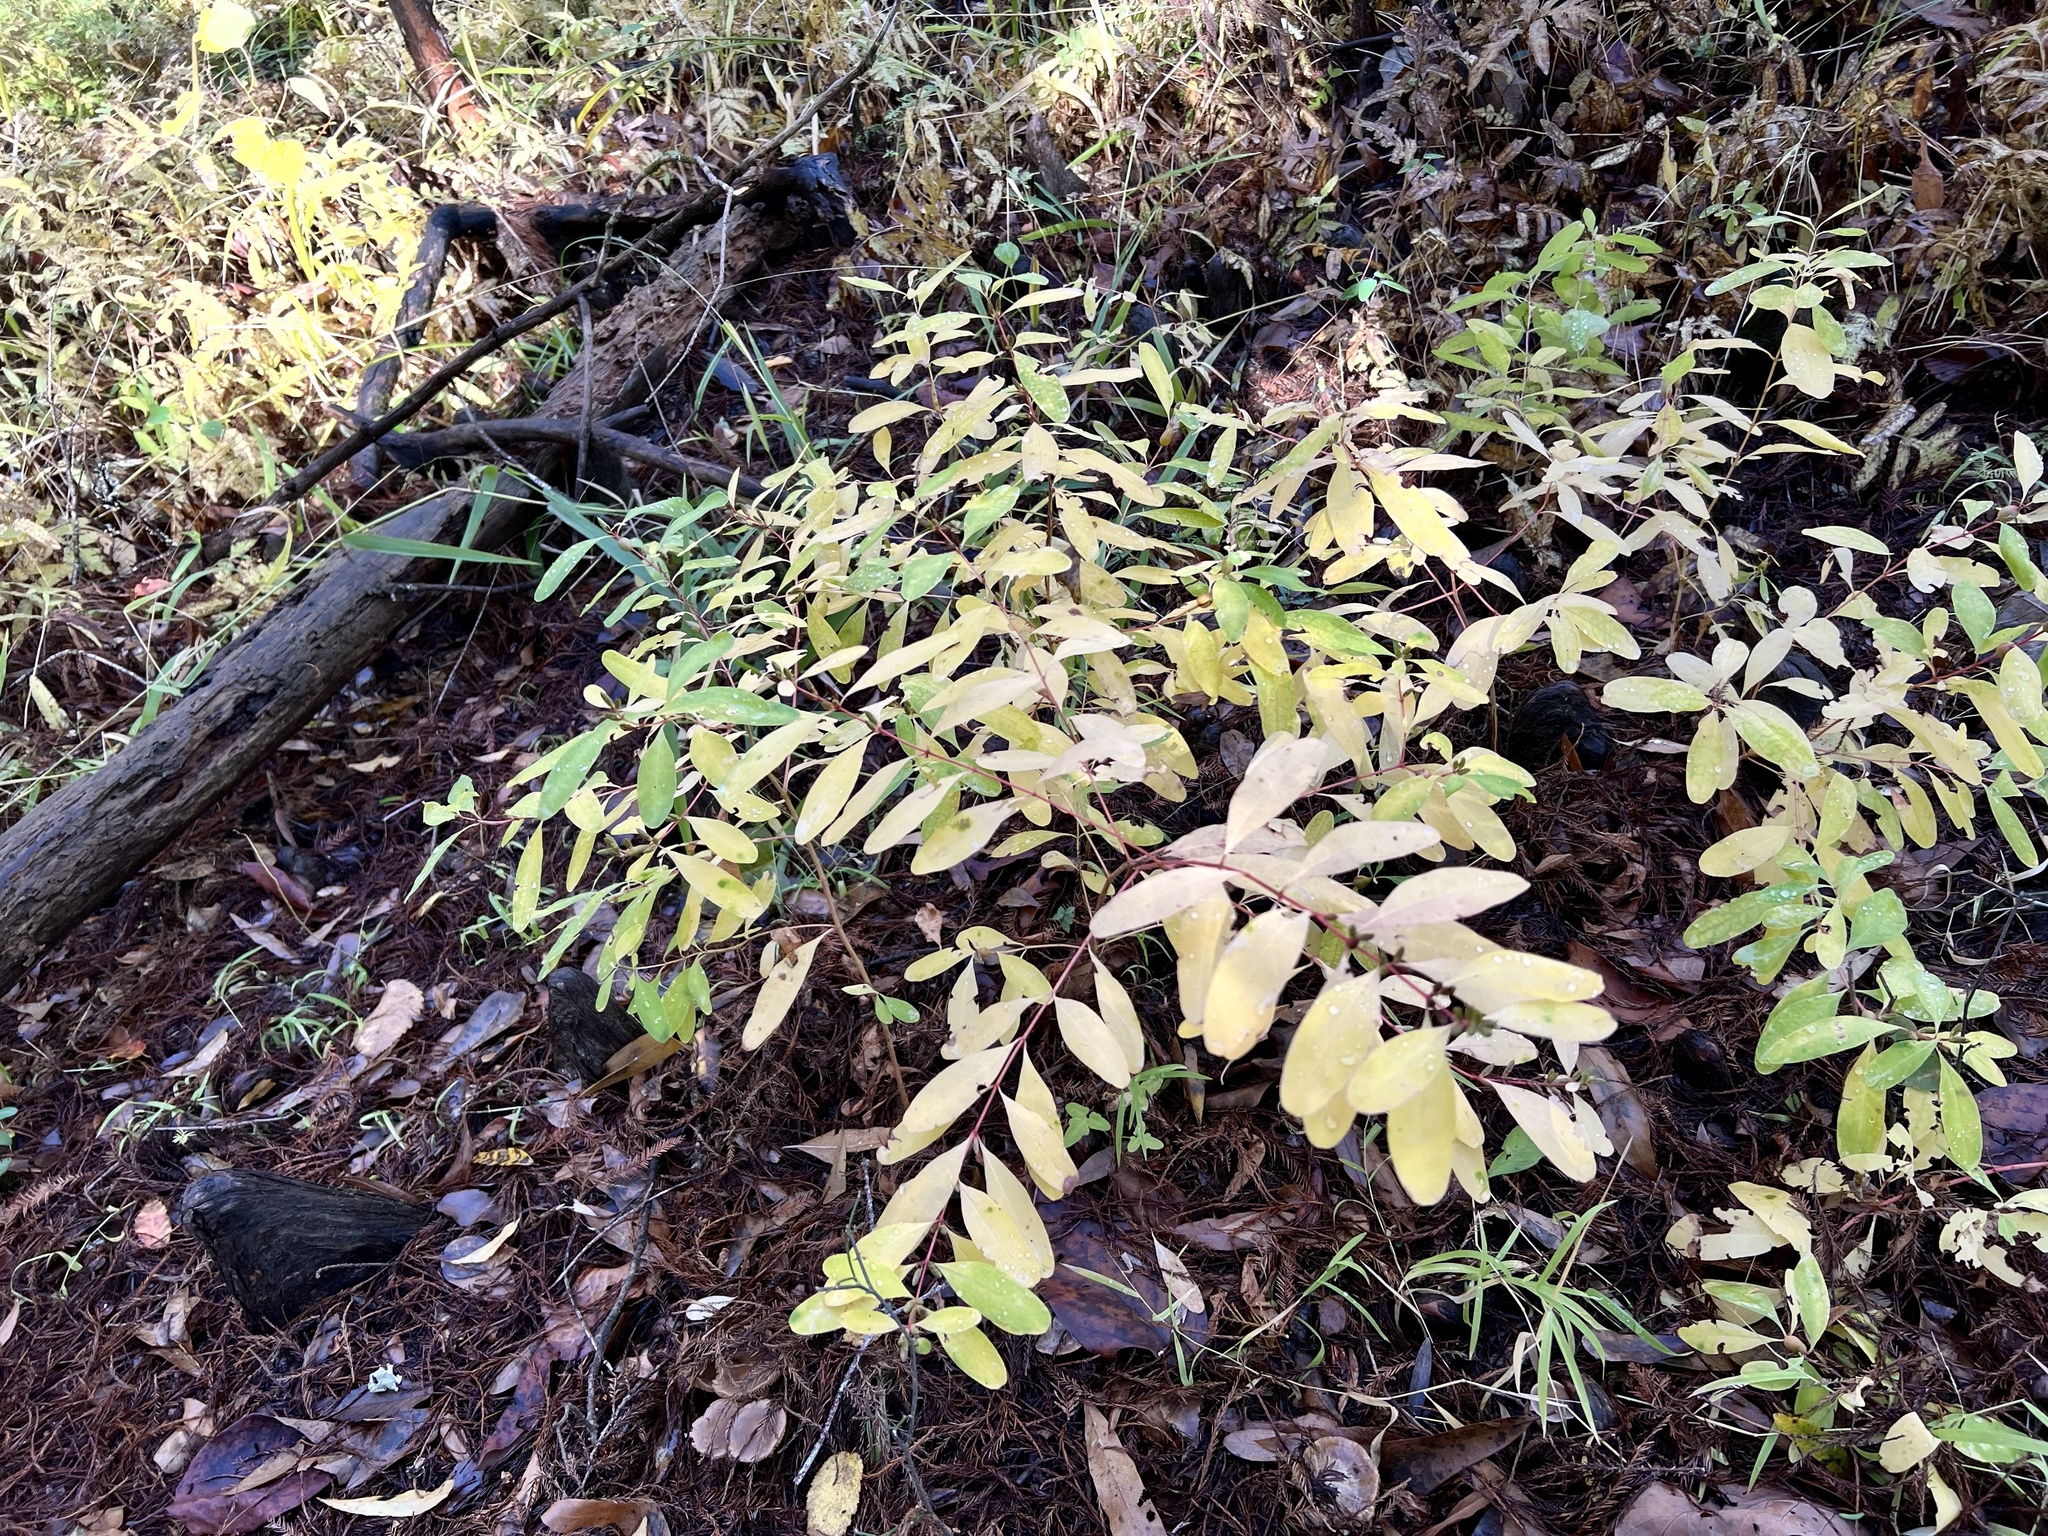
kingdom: Plantae
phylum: Tracheophyta
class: Magnoliopsida
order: Malpighiales
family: Hypericaceae
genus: Triadenum
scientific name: Triadenum walteri
